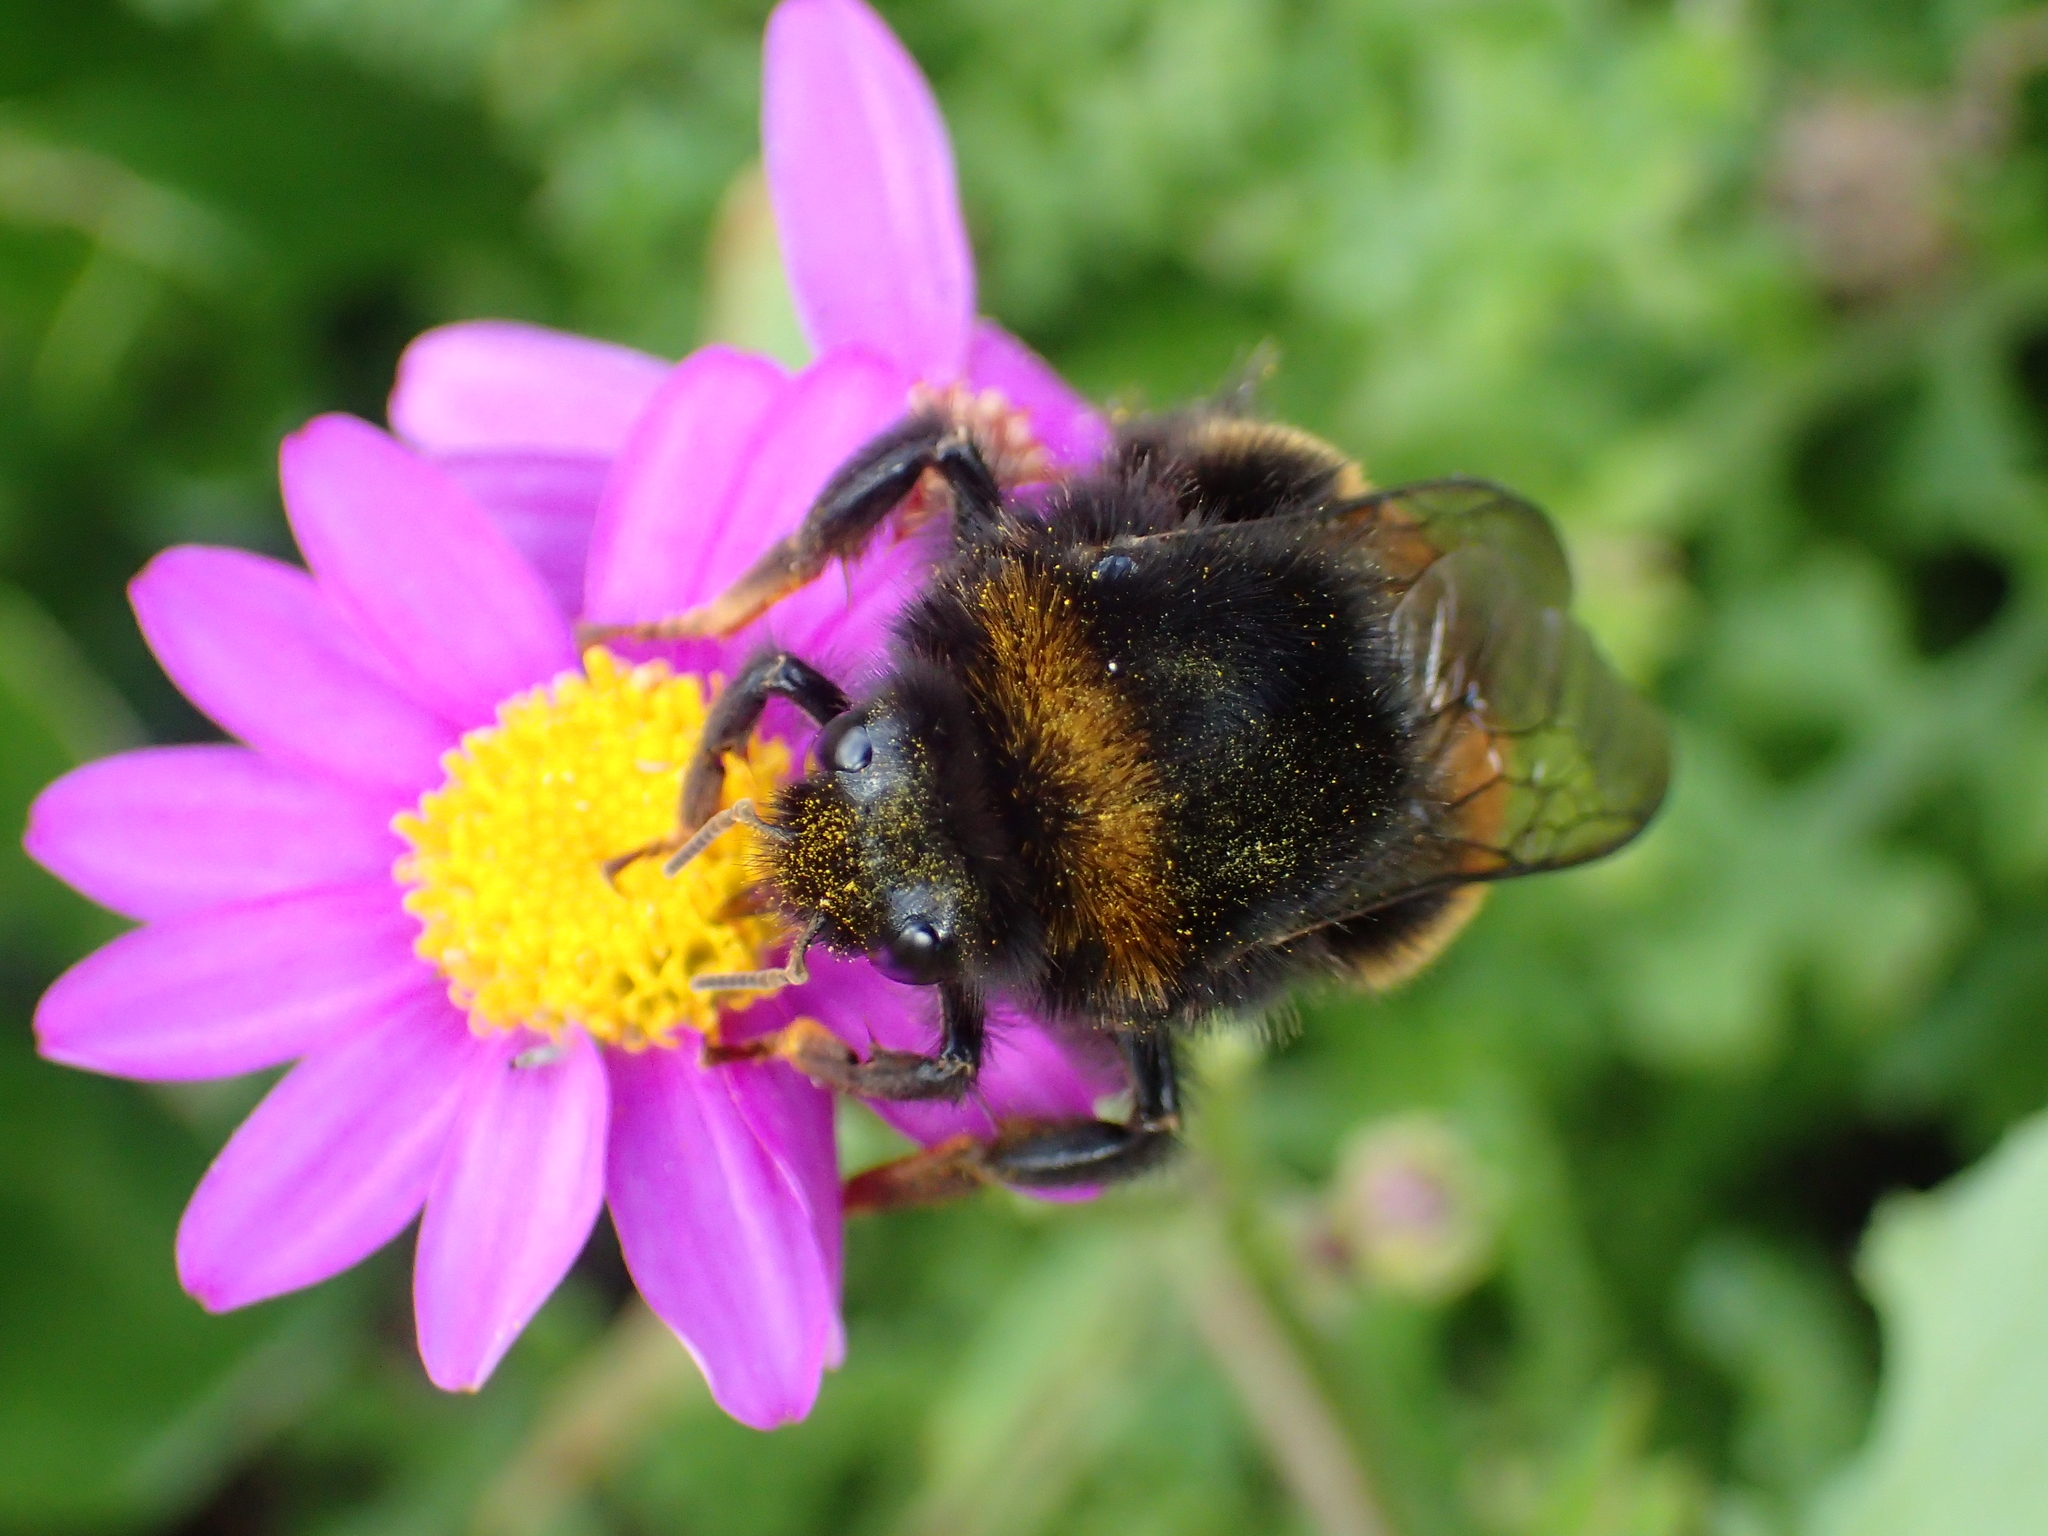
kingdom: Animalia
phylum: Arthropoda
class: Insecta
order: Hymenoptera
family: Apidae
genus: Bombus
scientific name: Bombus terrestris
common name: Buff-tailed bumblebee
